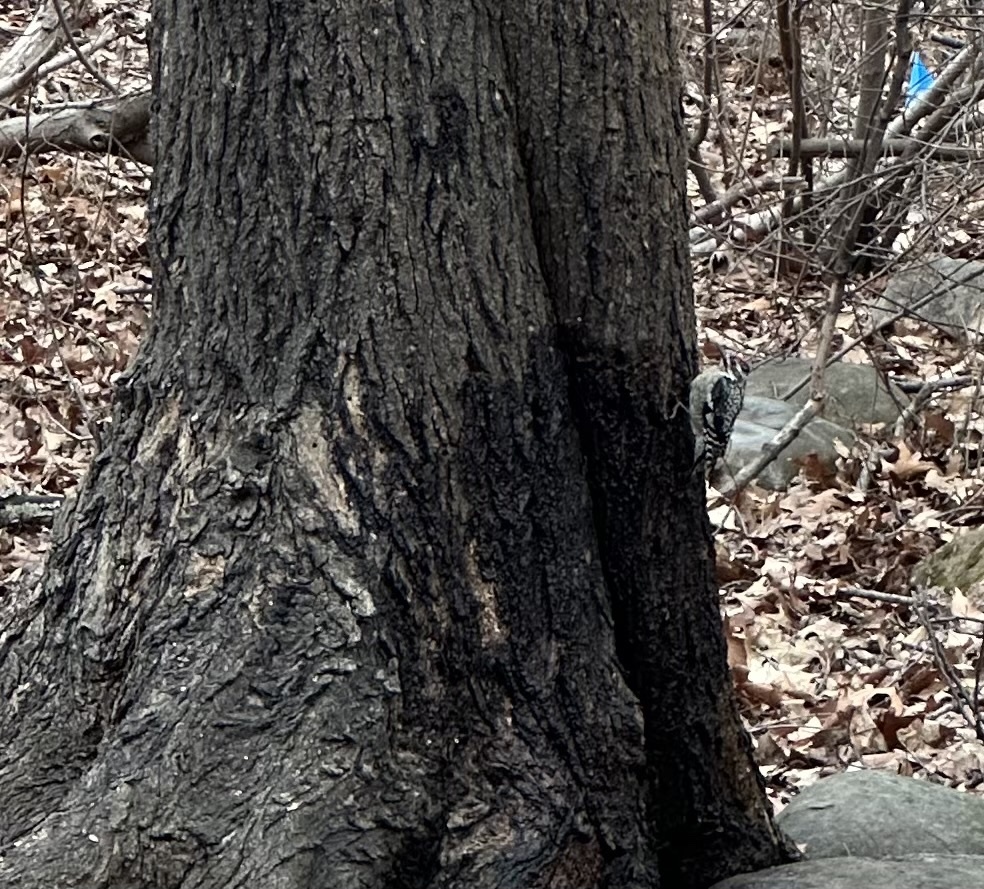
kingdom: Animalia
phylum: Chordata
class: Aves
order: Piciformes
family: Picidae
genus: Sphyrapicus
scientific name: Sphyrapicus varius
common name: Yellow-bellied sapsucker
